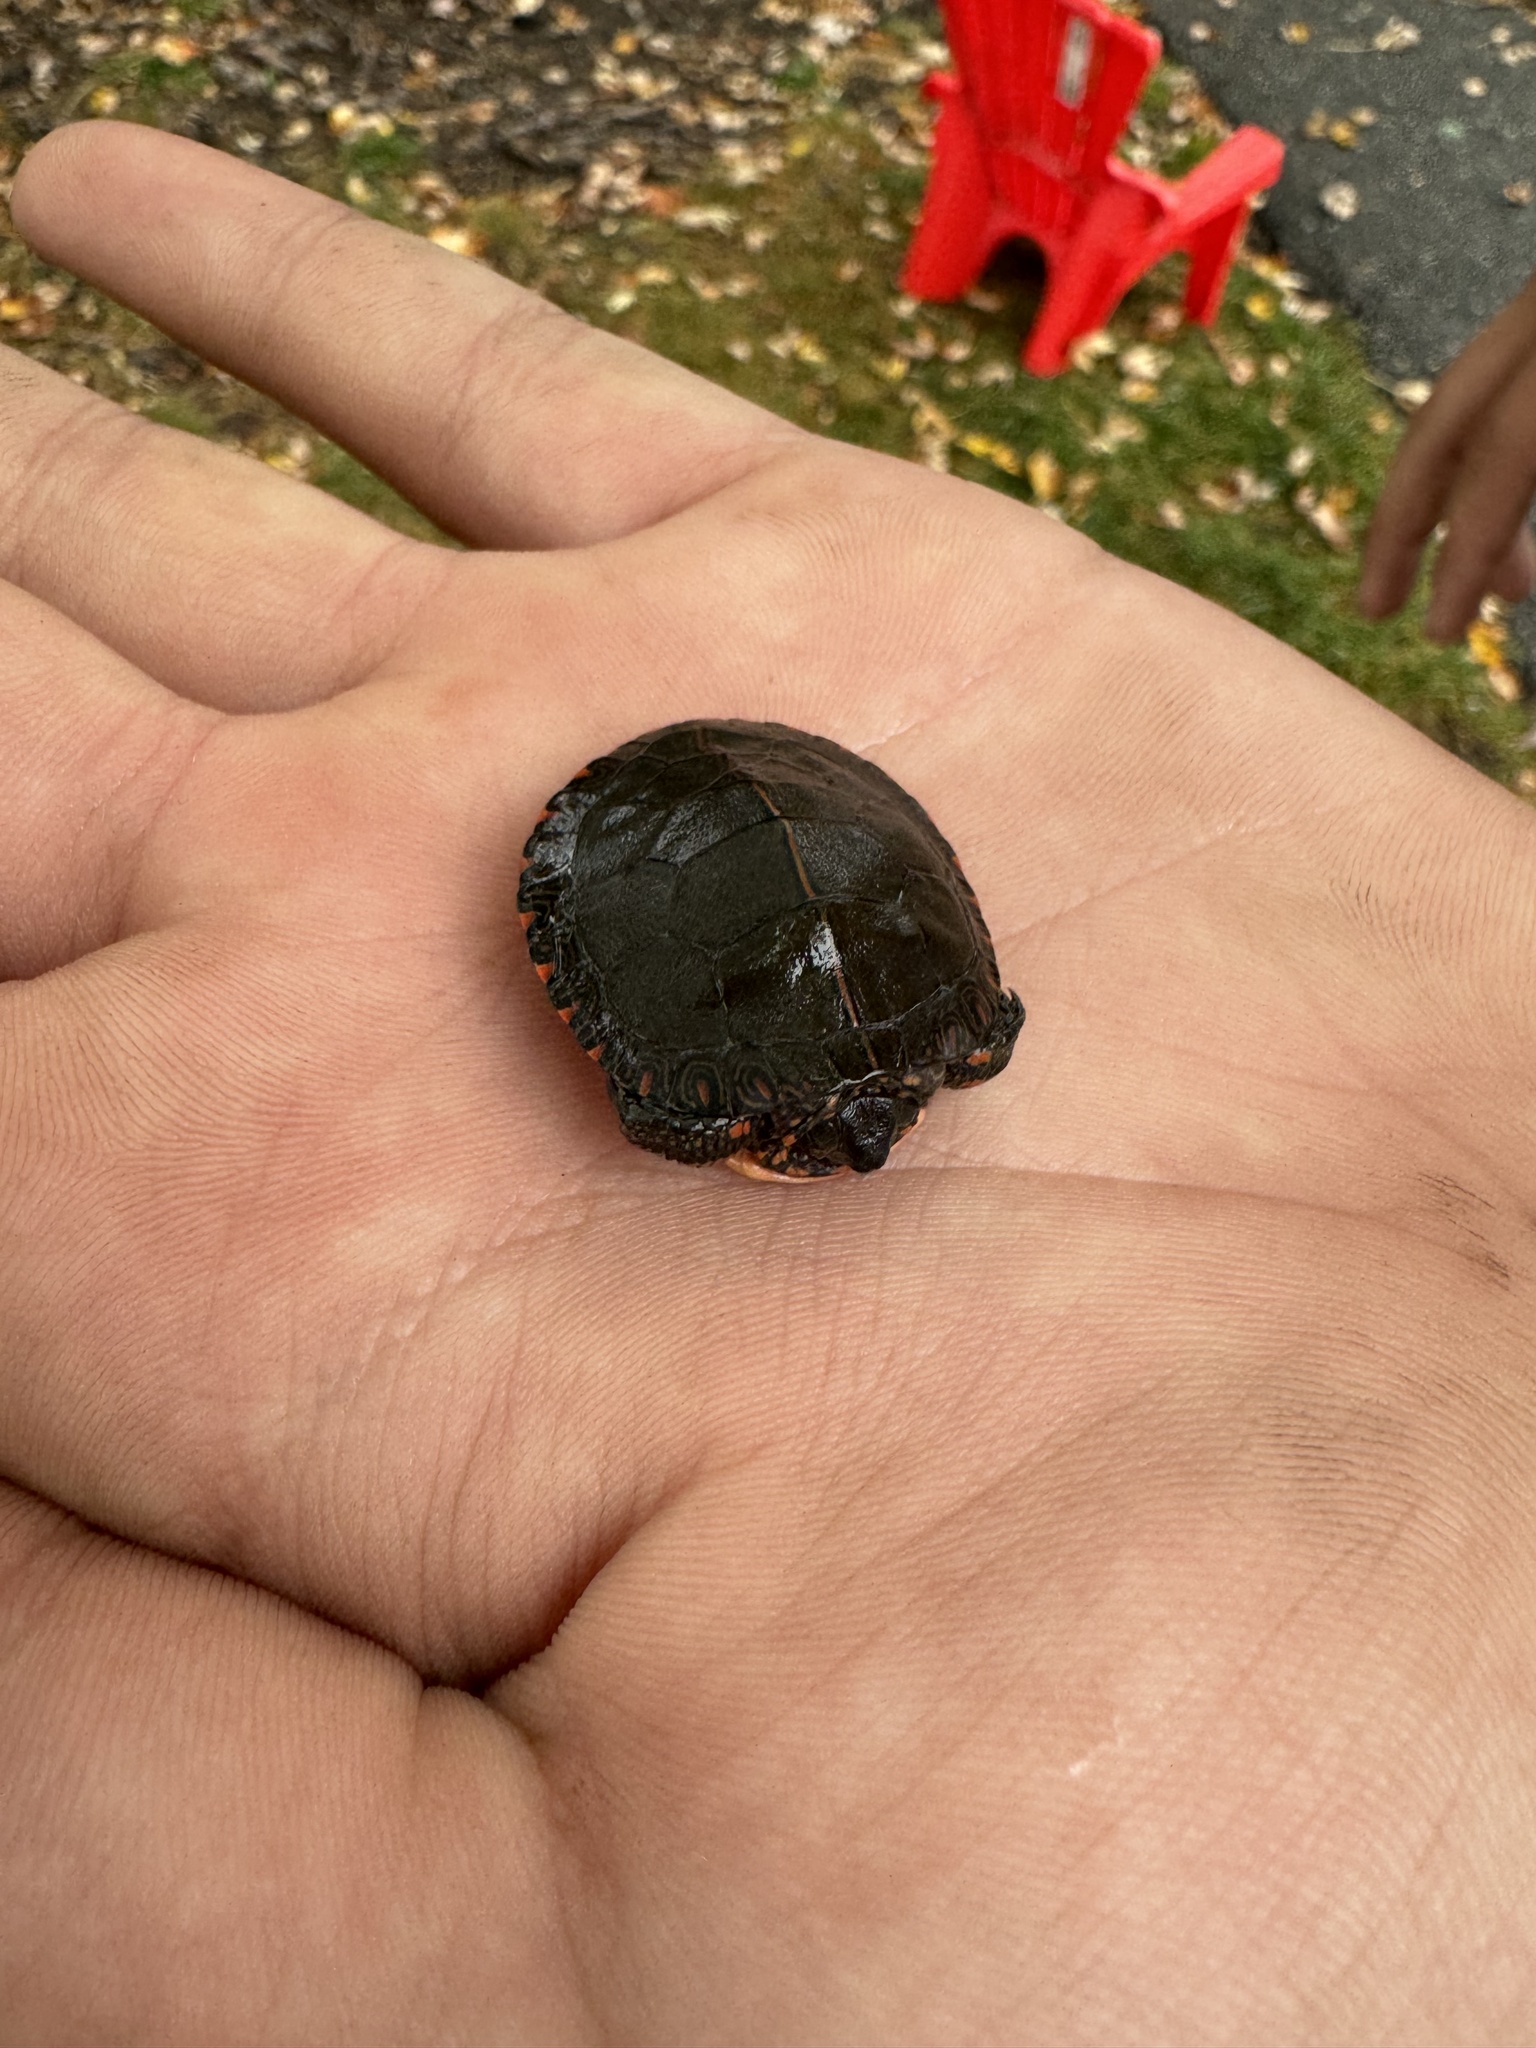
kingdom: Animalia
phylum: Chordata
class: Testudines
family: Emydidae
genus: Chrysemys
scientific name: Chrysemys picta
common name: Painted turtle
